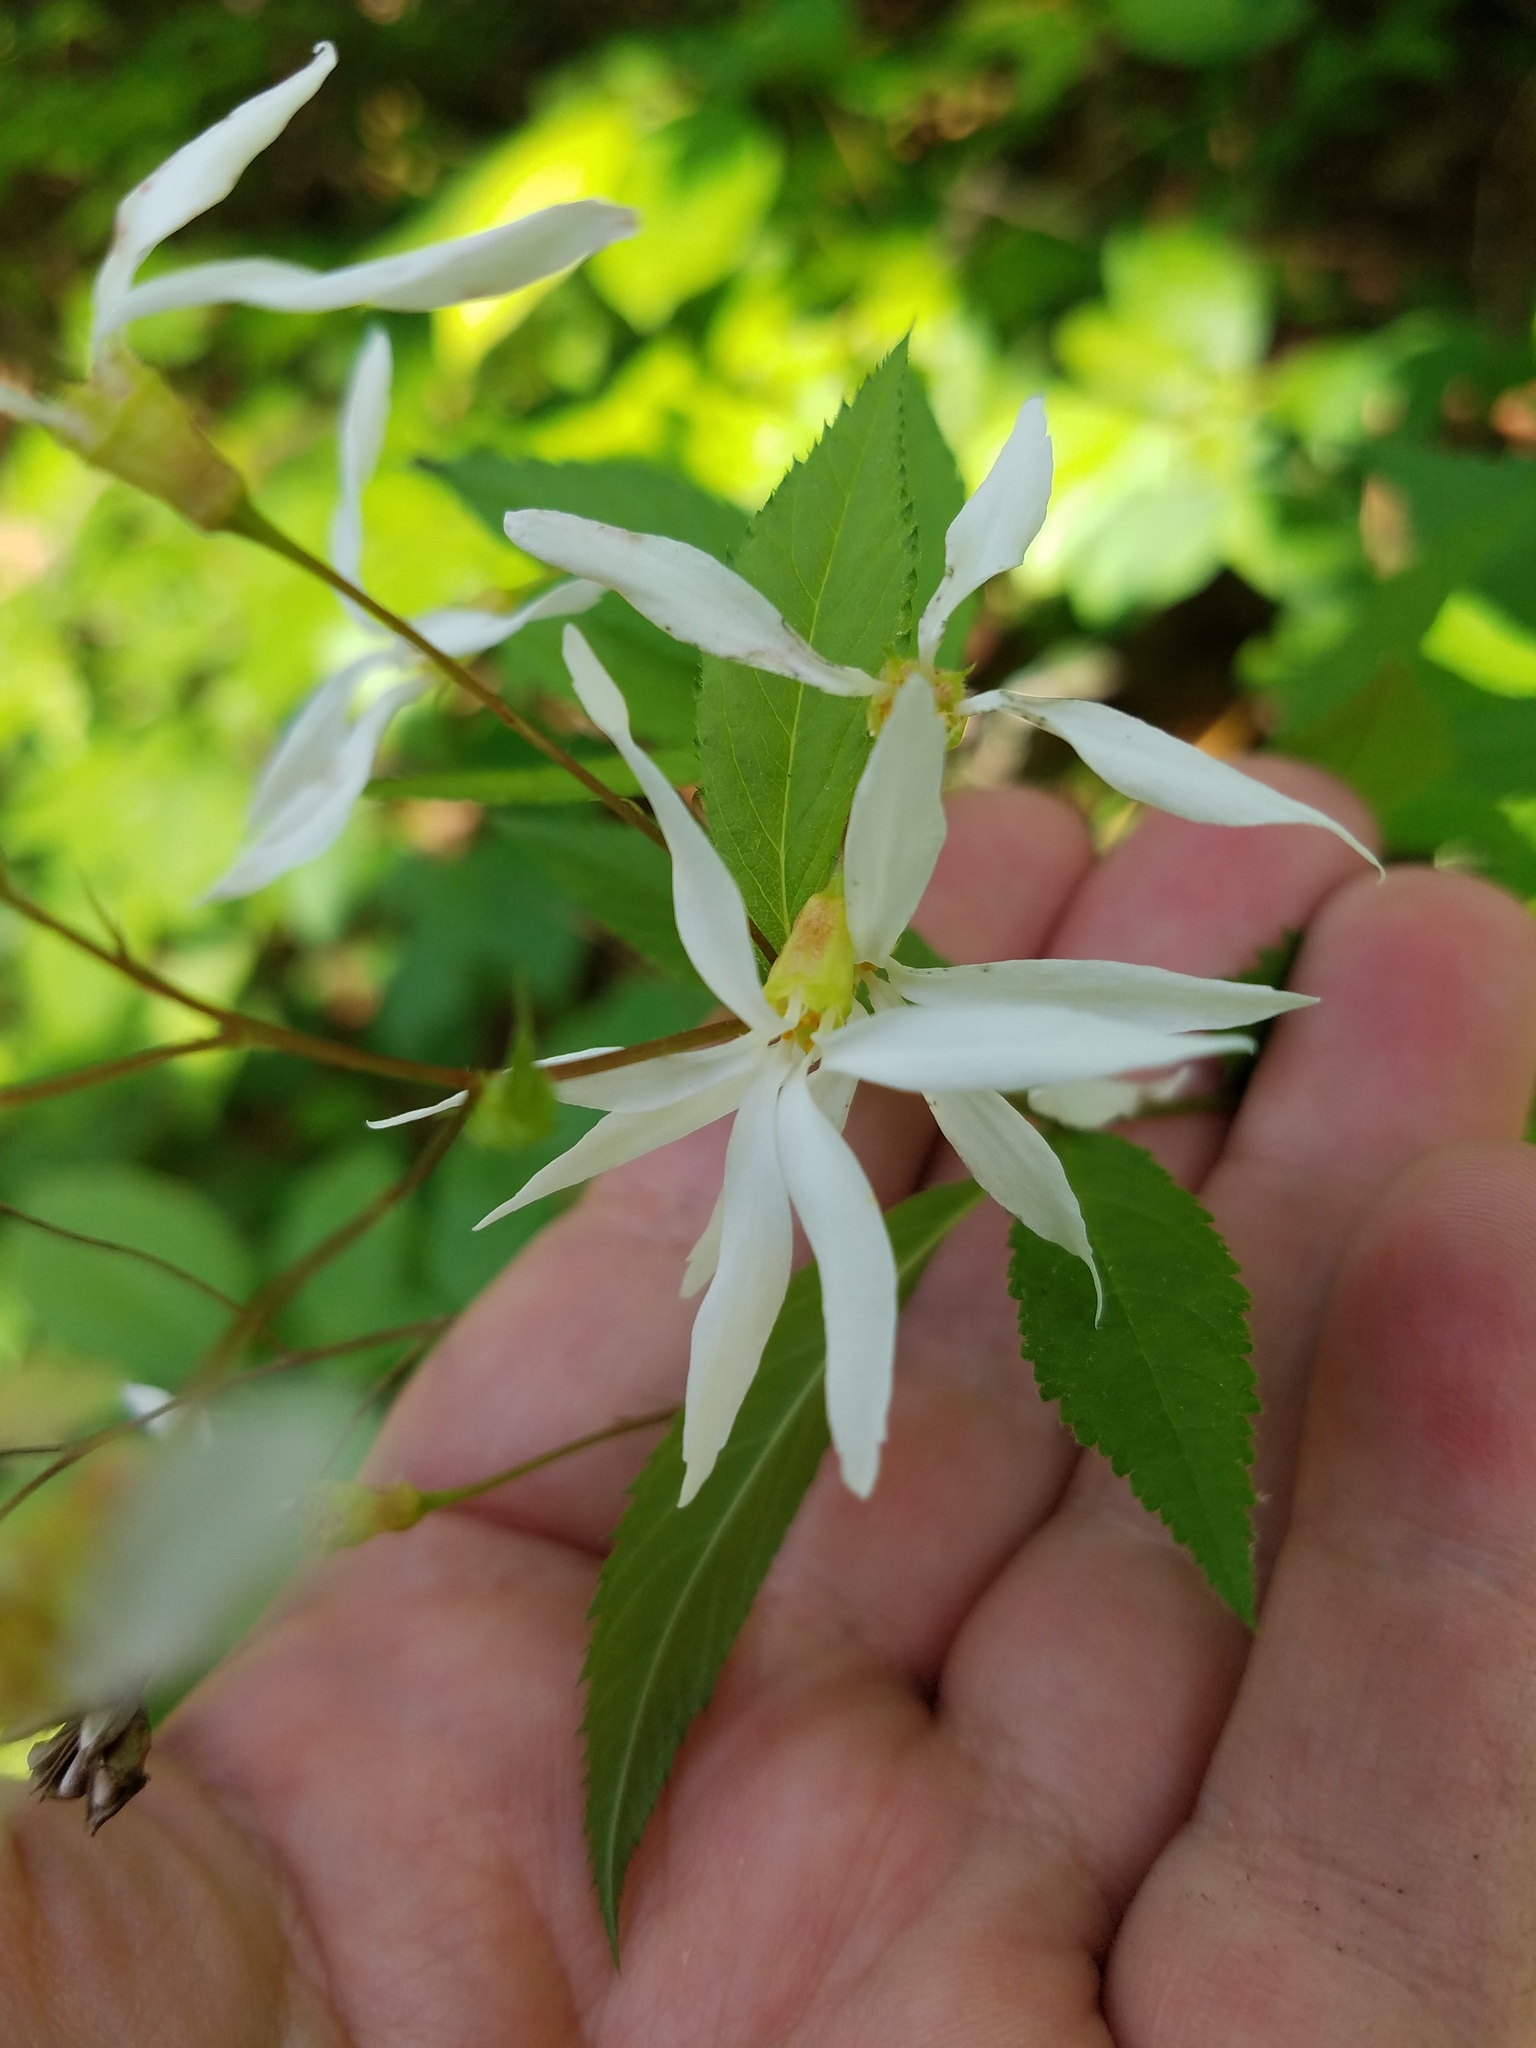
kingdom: Plantae
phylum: Tracheophyta
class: Magnoliopsida
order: Rosales
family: Rosaceae
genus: Gillenia
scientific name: Gillenia trifoliata
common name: Bowman's-root
